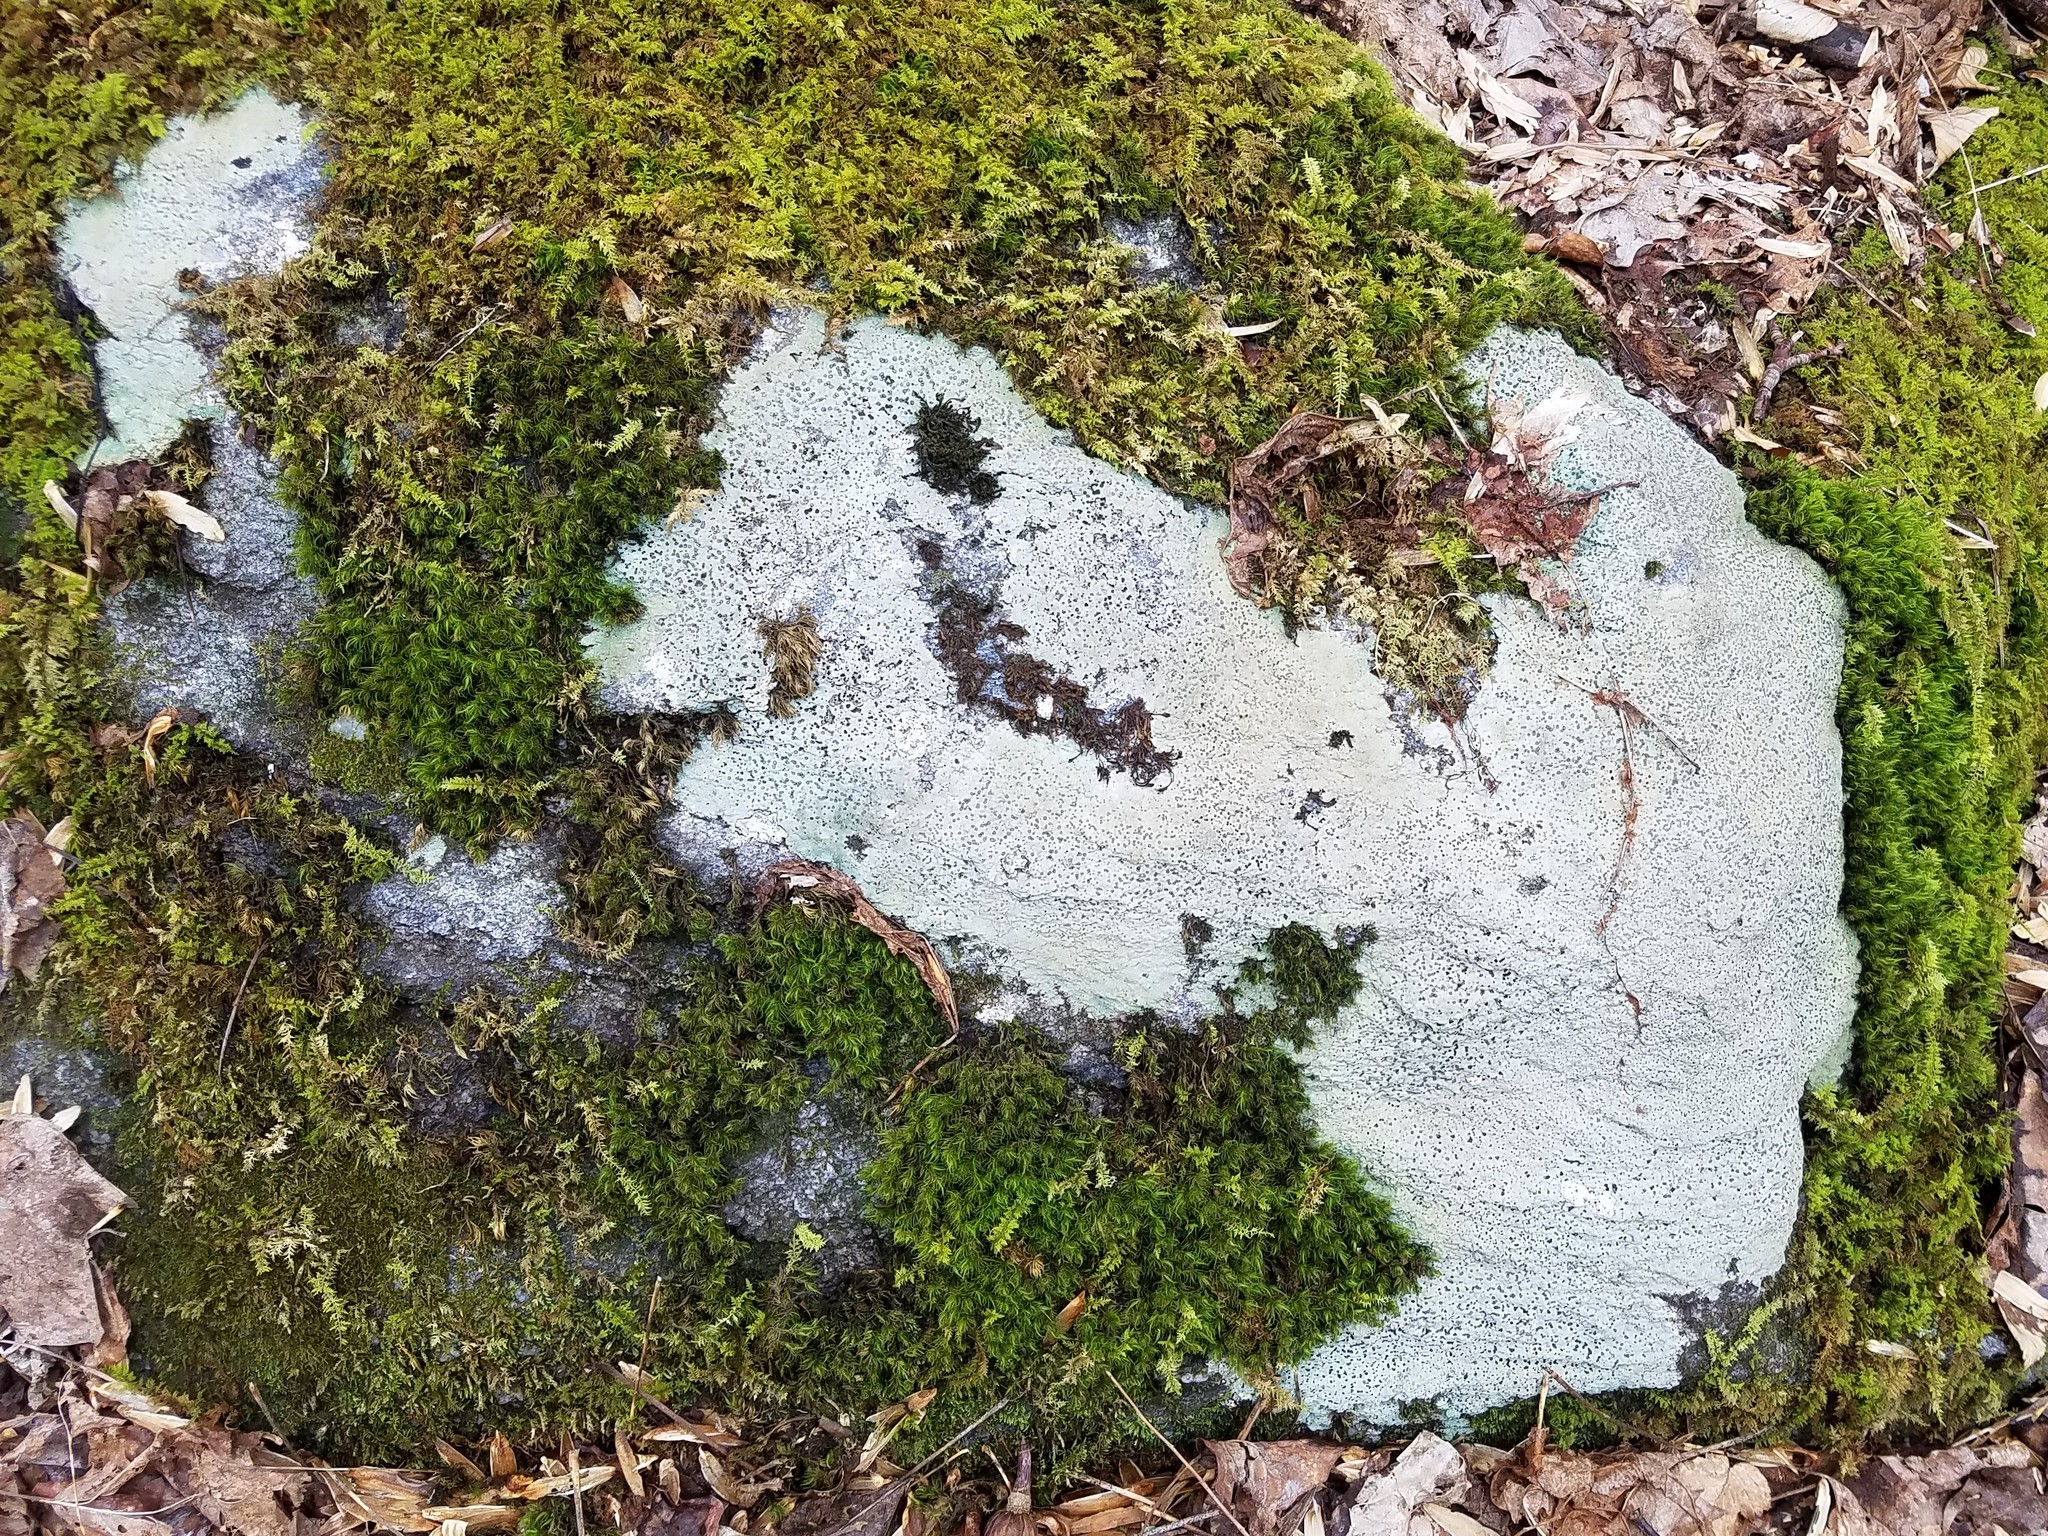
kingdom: Fungi
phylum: Ascomycota
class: Lecanoromycetes
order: Lecideales
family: Lecideaceae
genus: Porpidia
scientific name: Porpidia albocaerulescens
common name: Smokey-eyed boulder lichen
